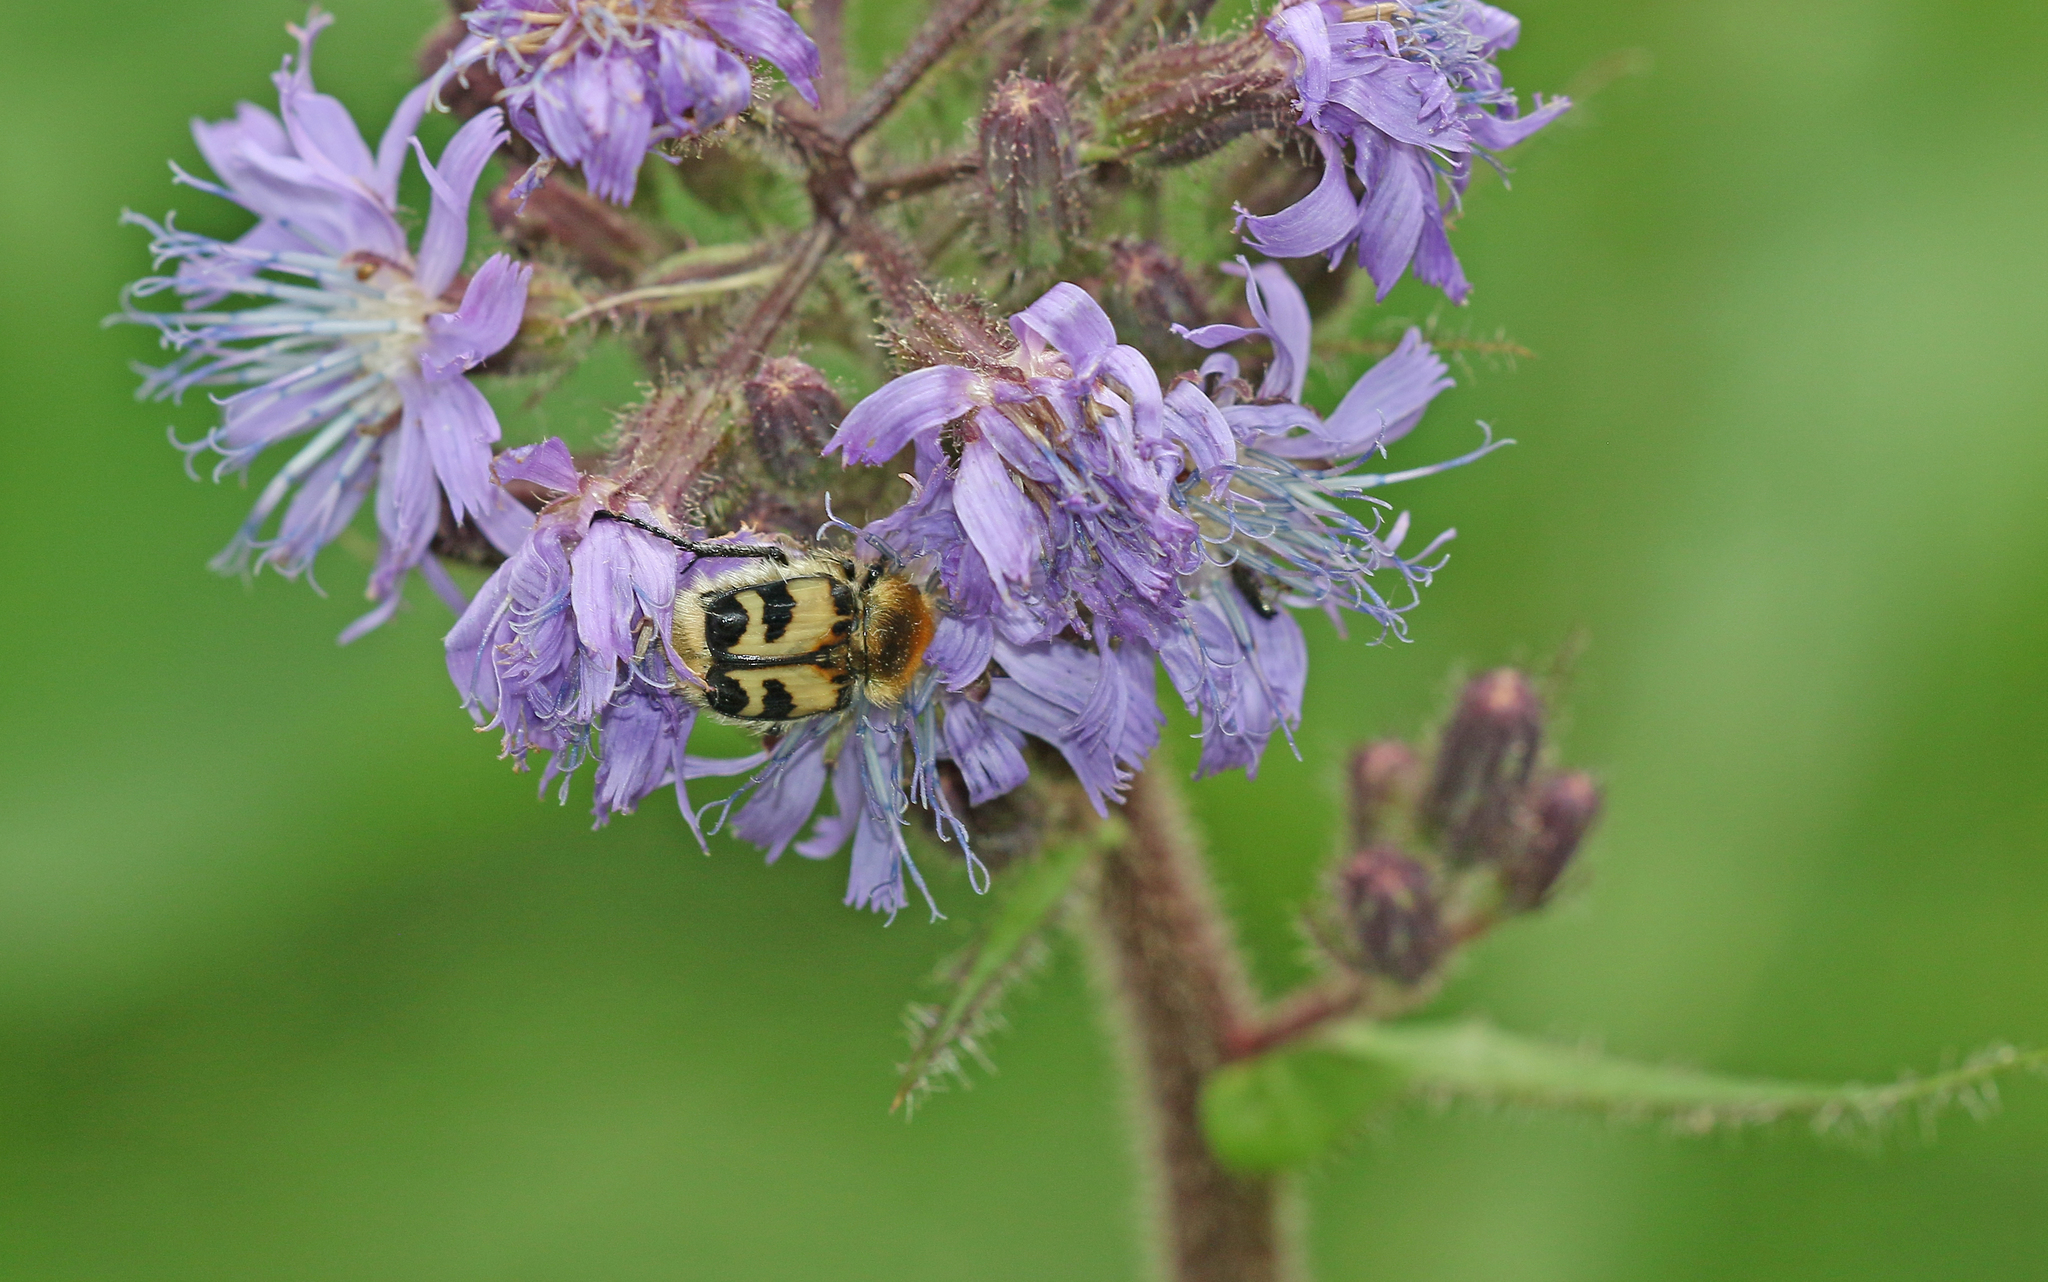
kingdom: Animalia
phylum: Arthropoda
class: Insecta
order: Coleoptera
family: Scarabaeidae
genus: Trichius
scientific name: Trichius fasciatus
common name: Bee beetle
